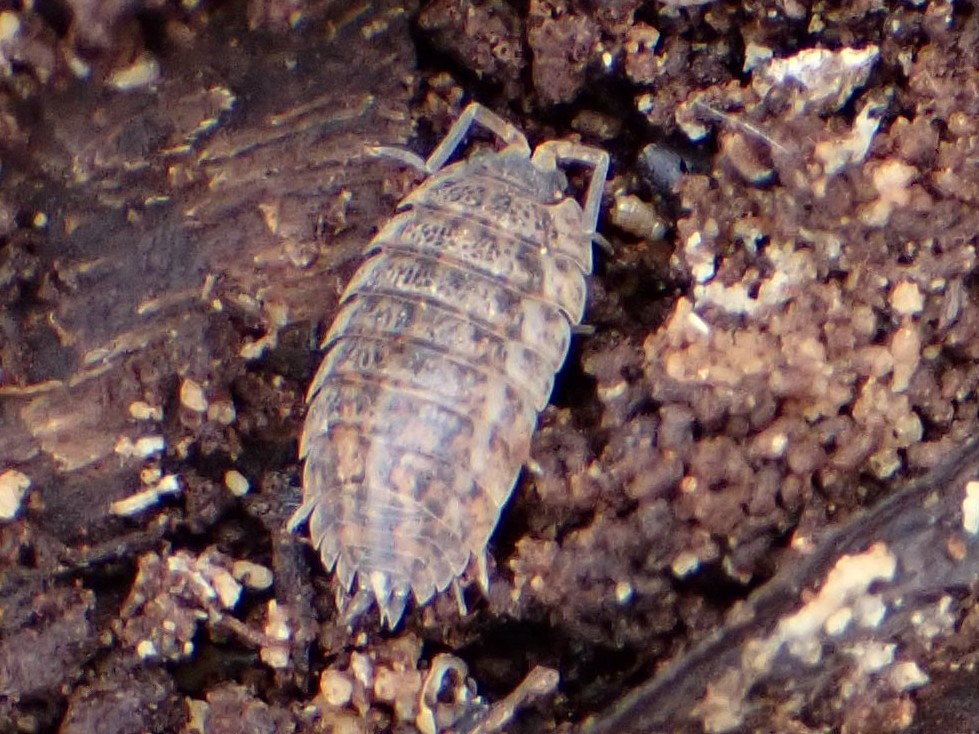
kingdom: Animalia
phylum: Arthropoda
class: Malacostraca
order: Isopoda
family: Trachelipodidae
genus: Trachelipus
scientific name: Trachelipus rathkii
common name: Isopod
